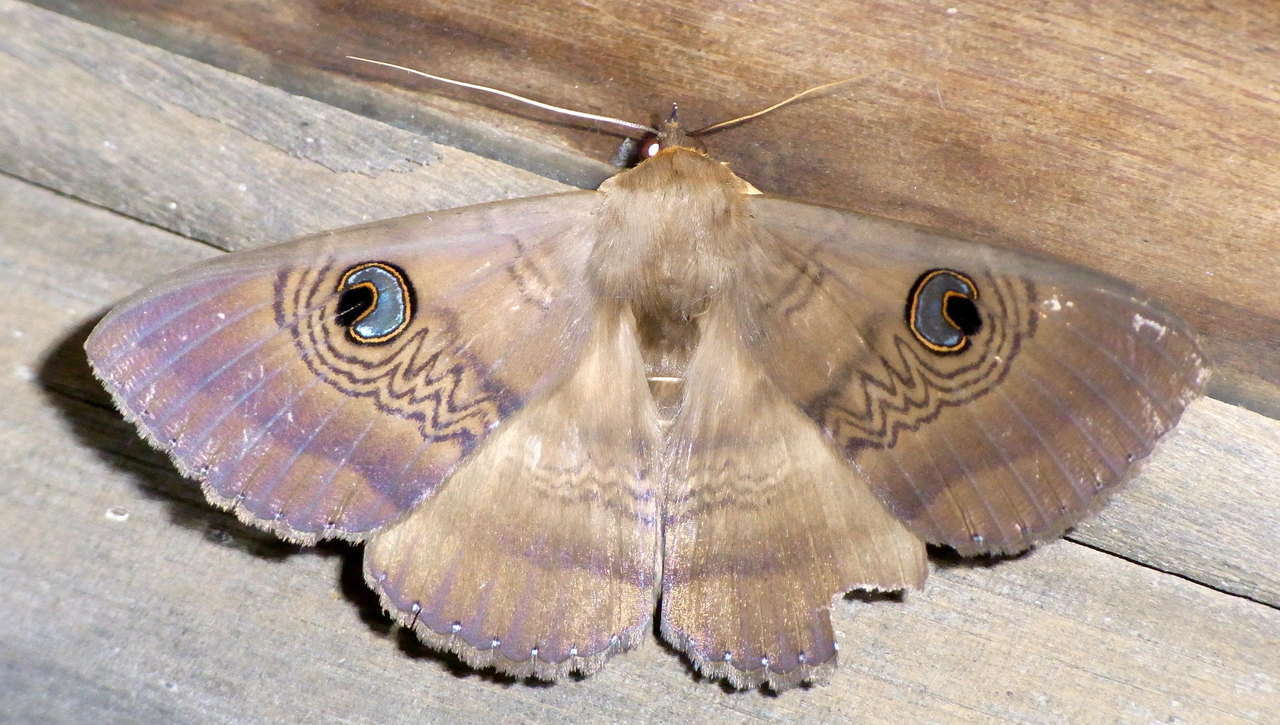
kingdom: Animalia
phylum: Arthropoda
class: Insecta
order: Lepidoptera
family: Erebidae
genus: Dasypodia
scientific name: Dasypodia selenophora
